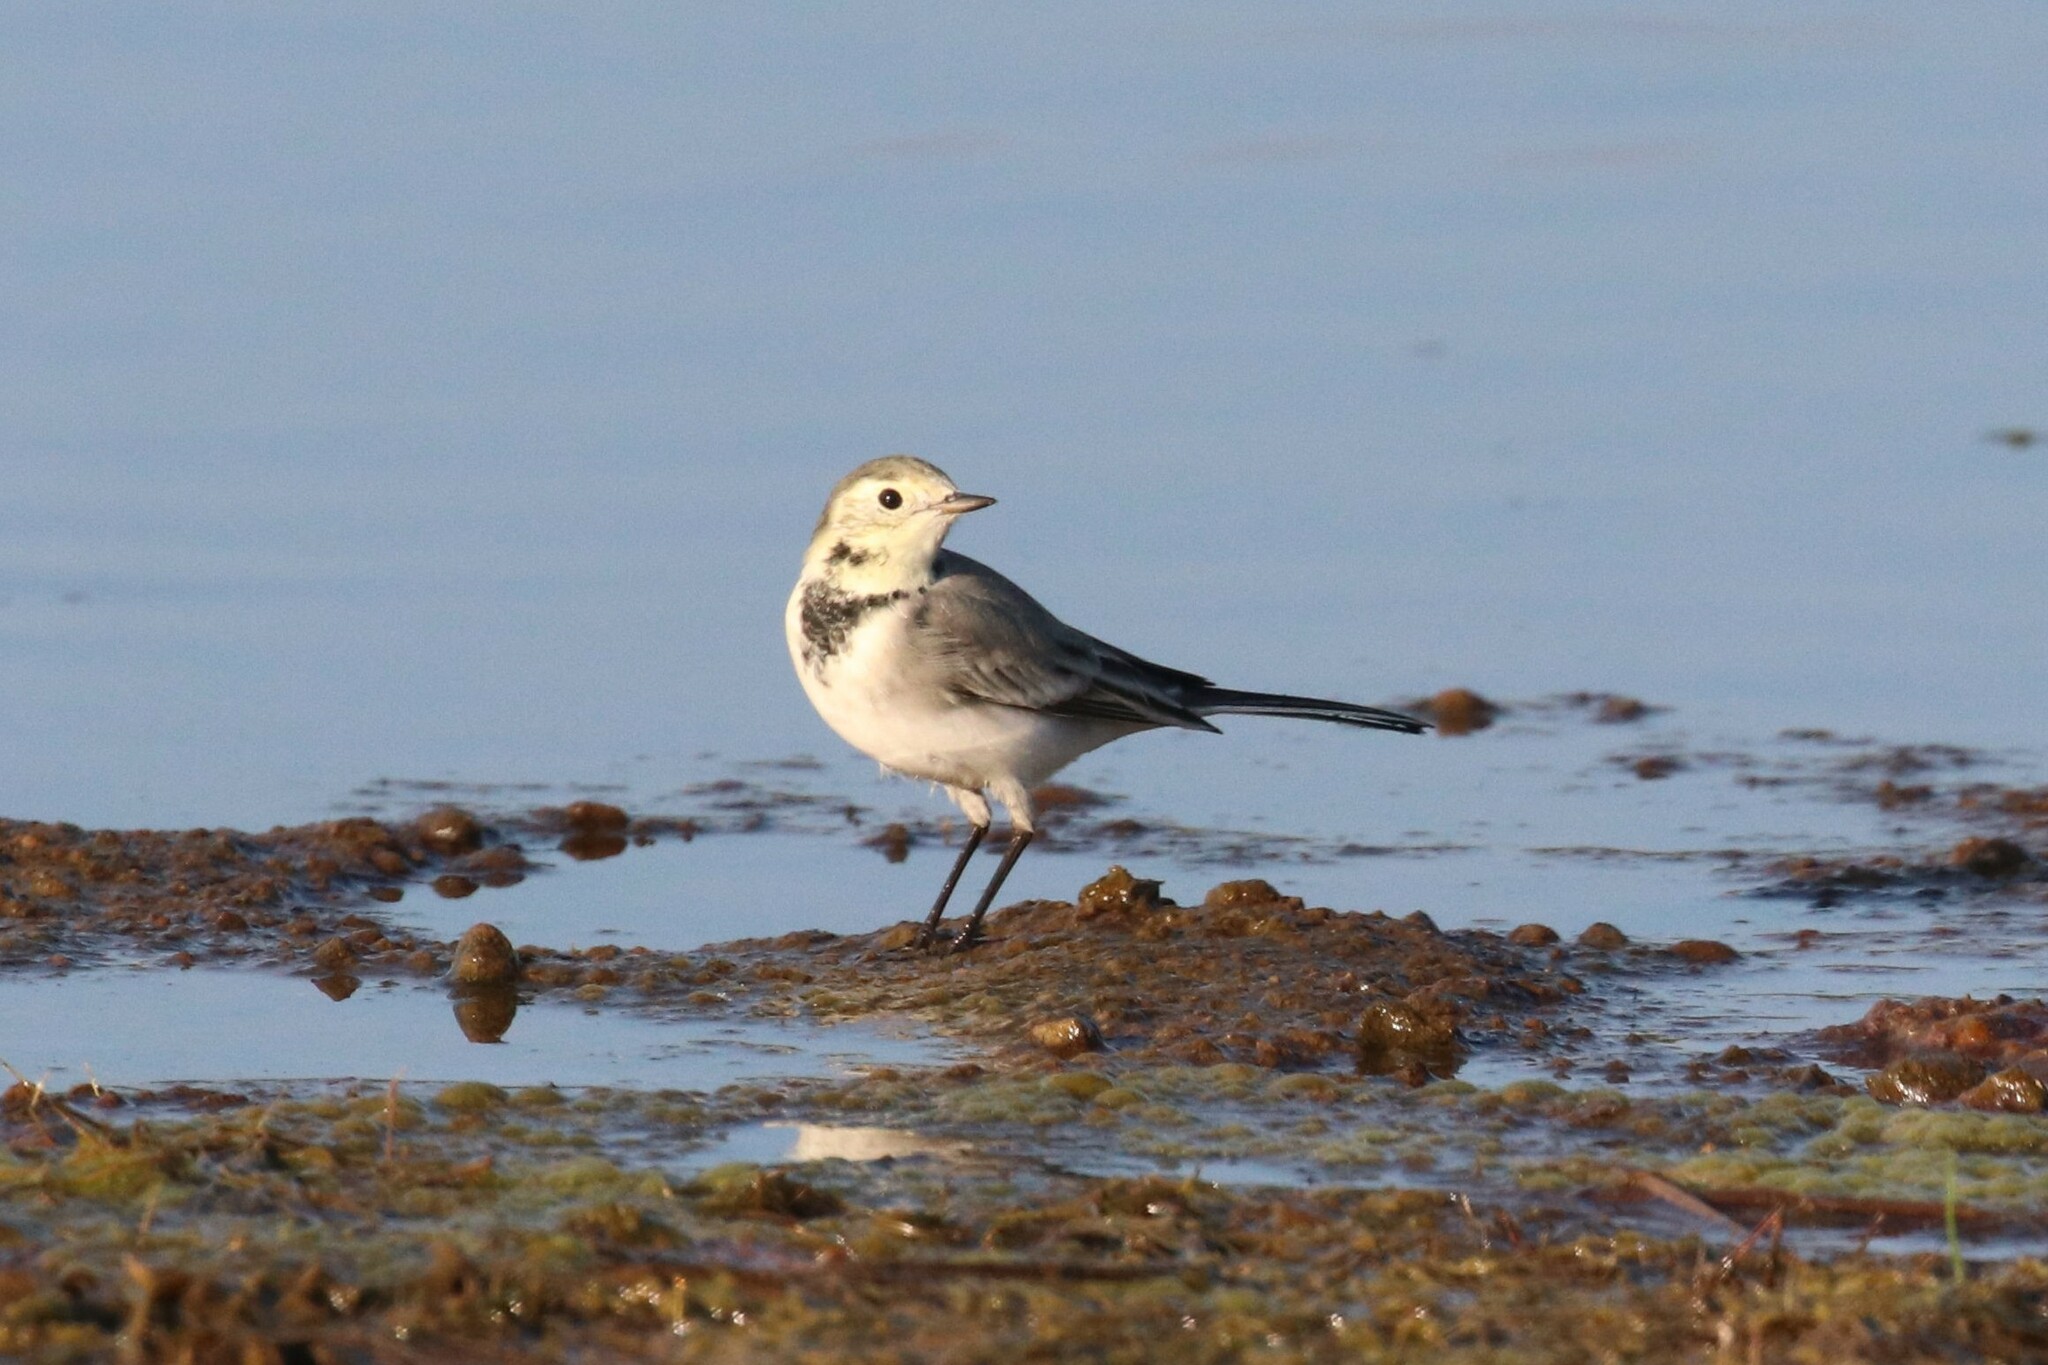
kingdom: Animalia
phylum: Chordata
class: Aves
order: Passeriformes
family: Motacillidae
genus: Motacilla
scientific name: Motacilla alba
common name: White wagtail
